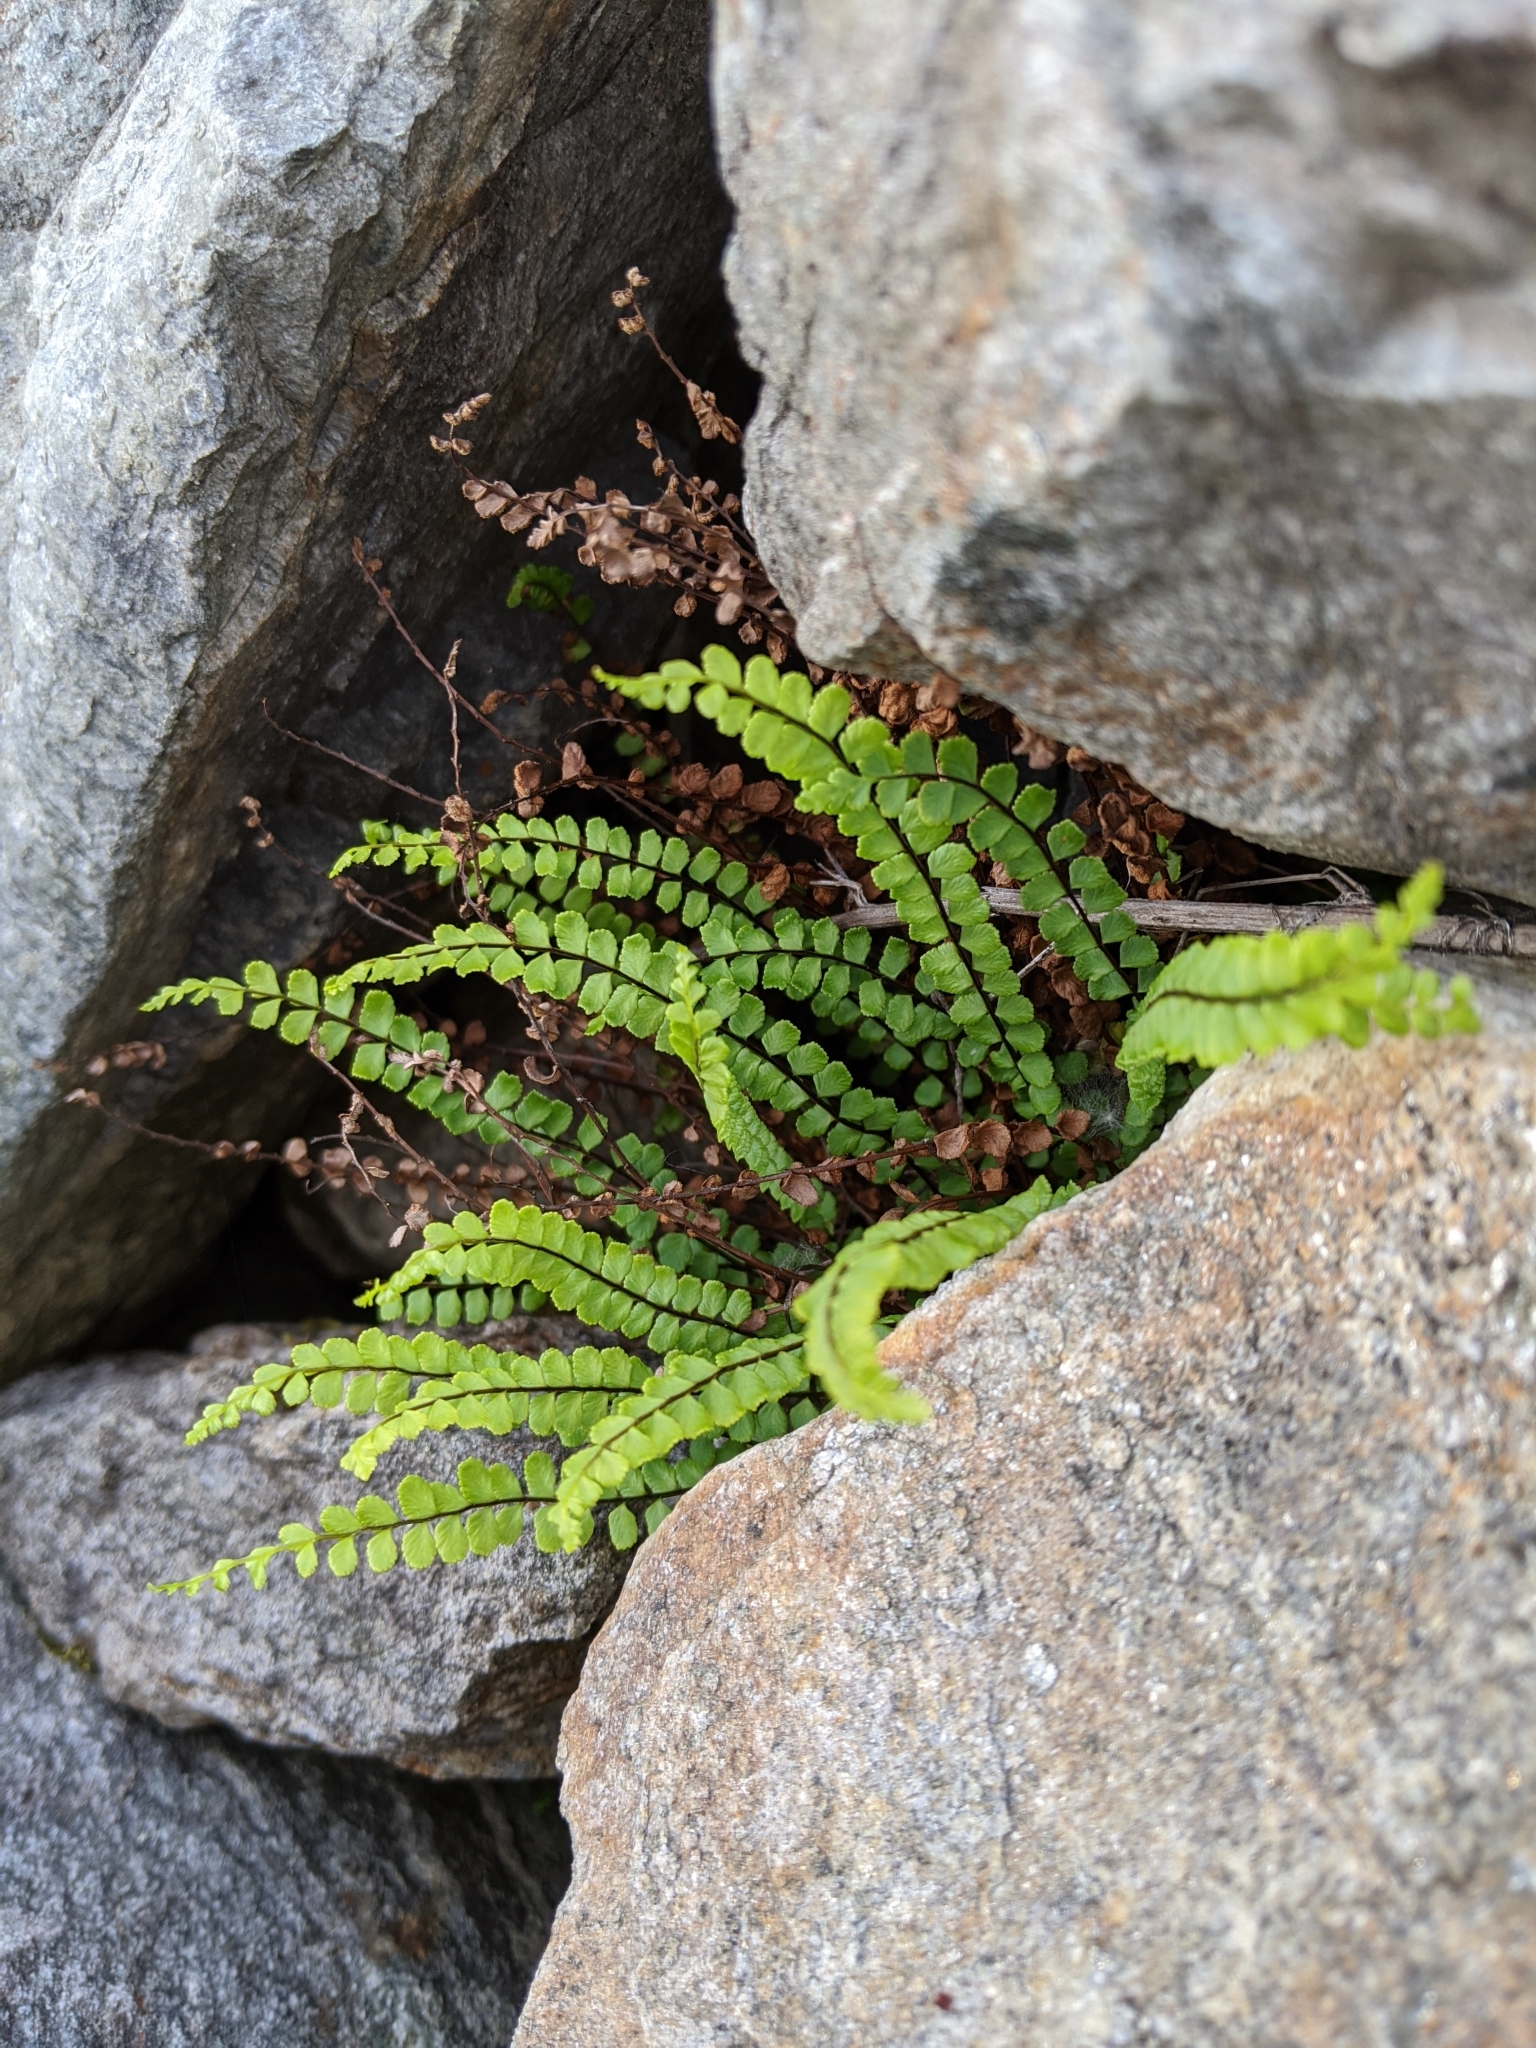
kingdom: Plantae
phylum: Tracheophyta
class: Polypodiopsida
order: Polypodiales
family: Aspleniaceae
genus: Asplenium
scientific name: Asplenium trichomanes
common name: Maidenhair spleenwort
